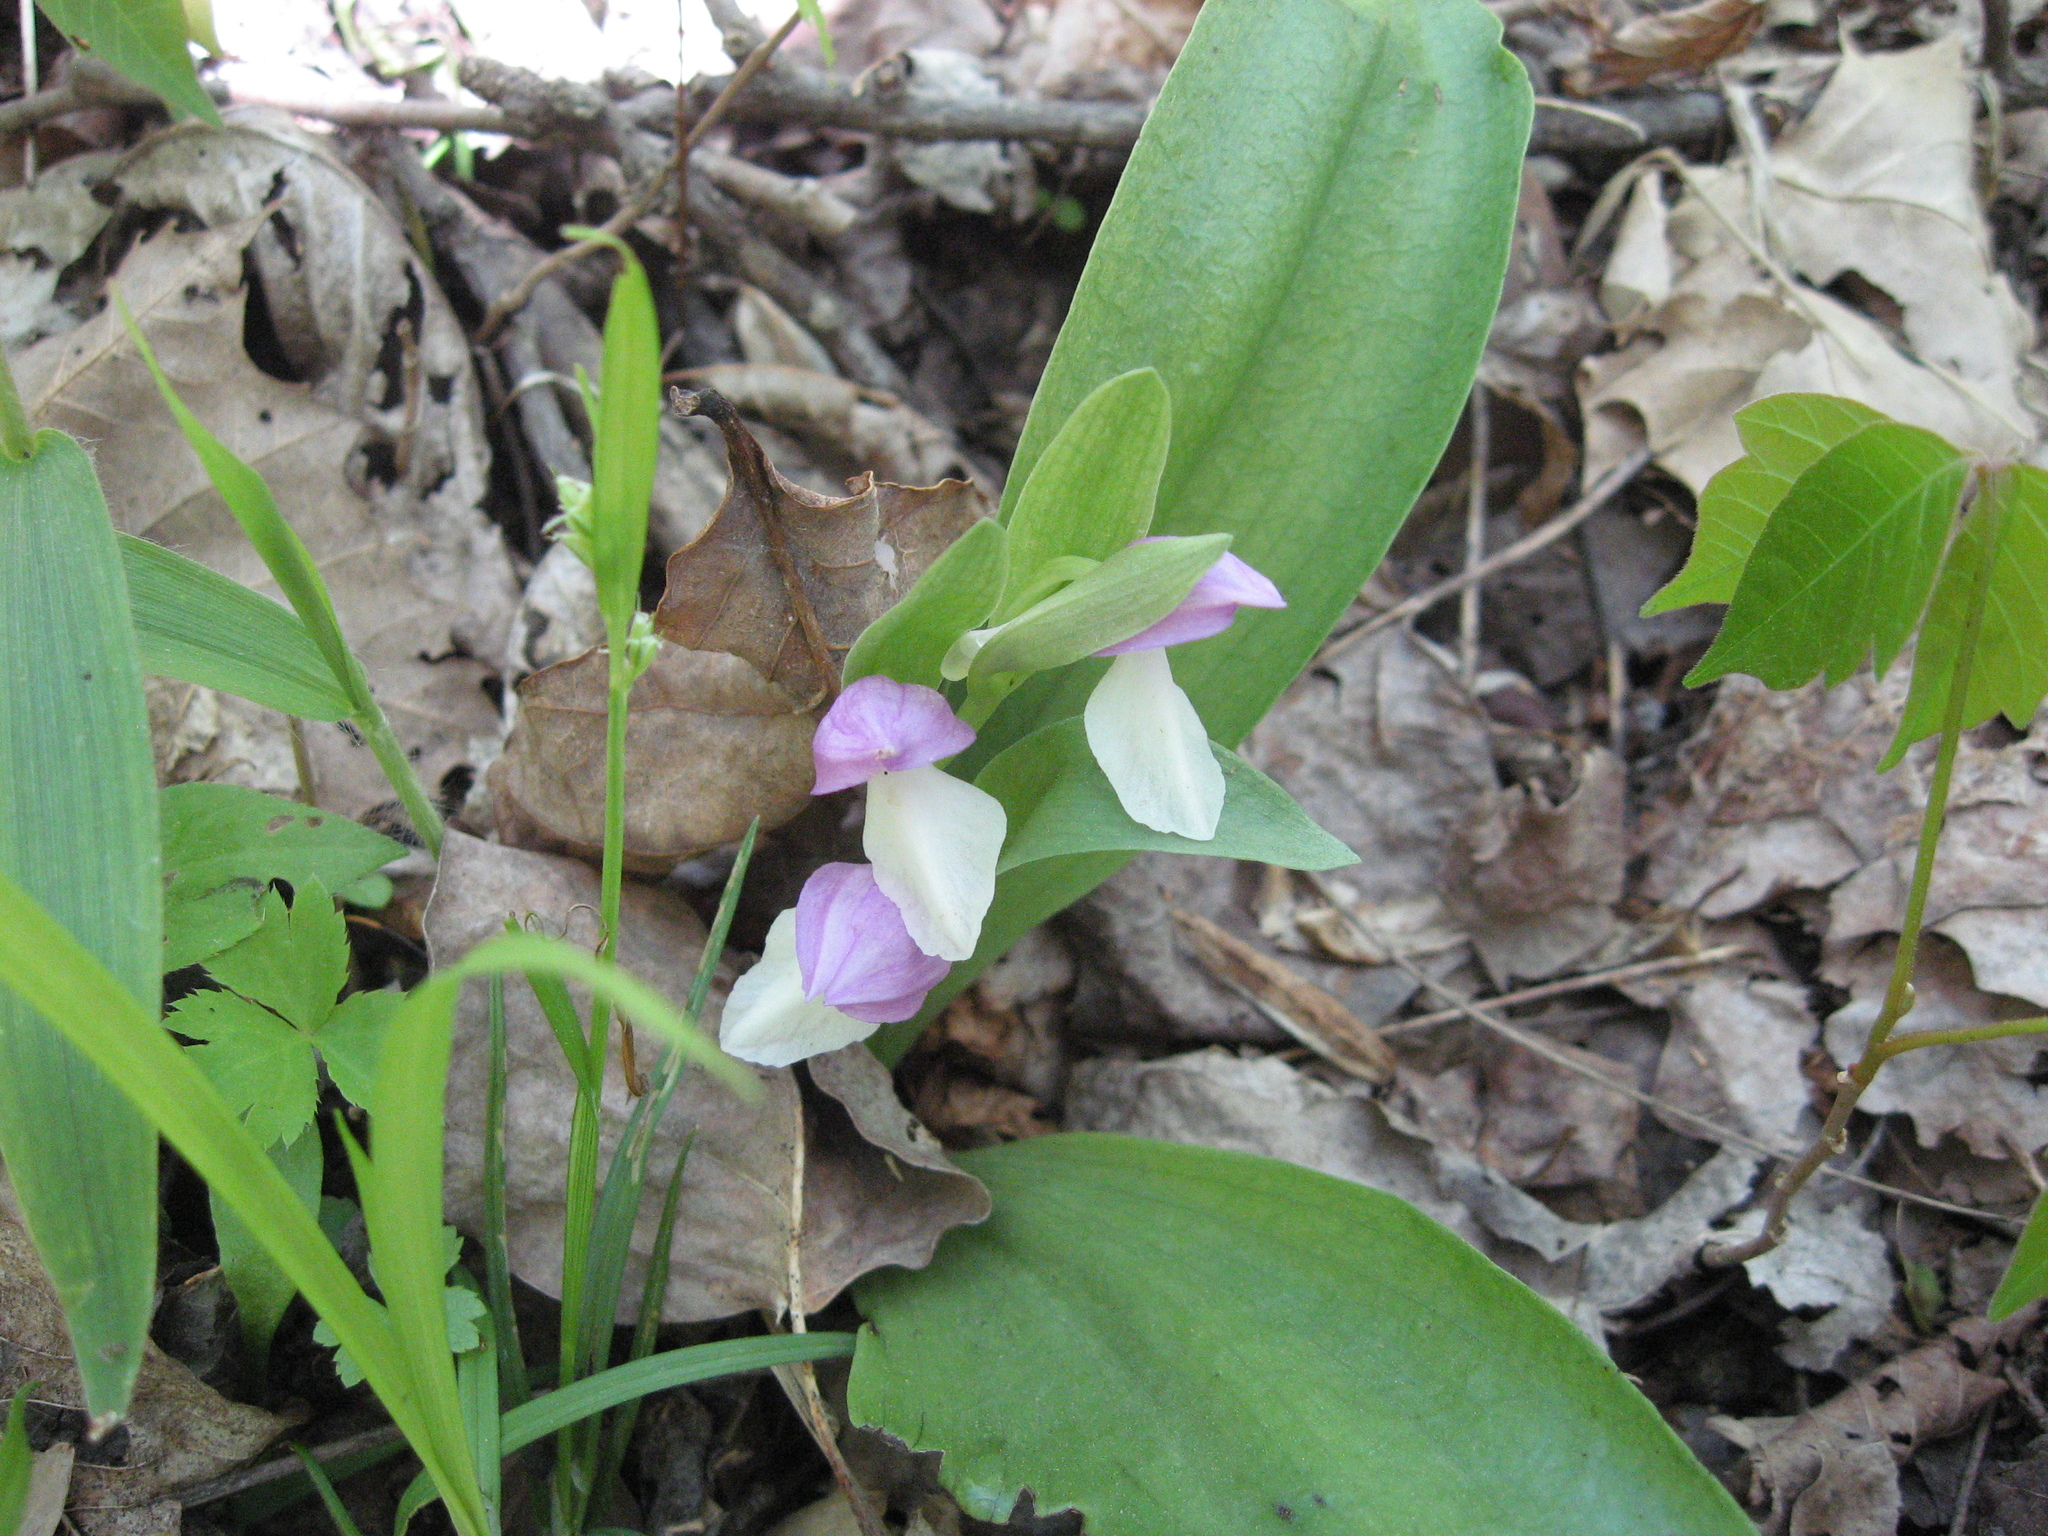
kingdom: Plantae
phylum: Tracheophyta
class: Liliopsida
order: Asparagales
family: Orchidaceae
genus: Galearis
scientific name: Galearis spectabilis
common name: Purple-hooded orchis
